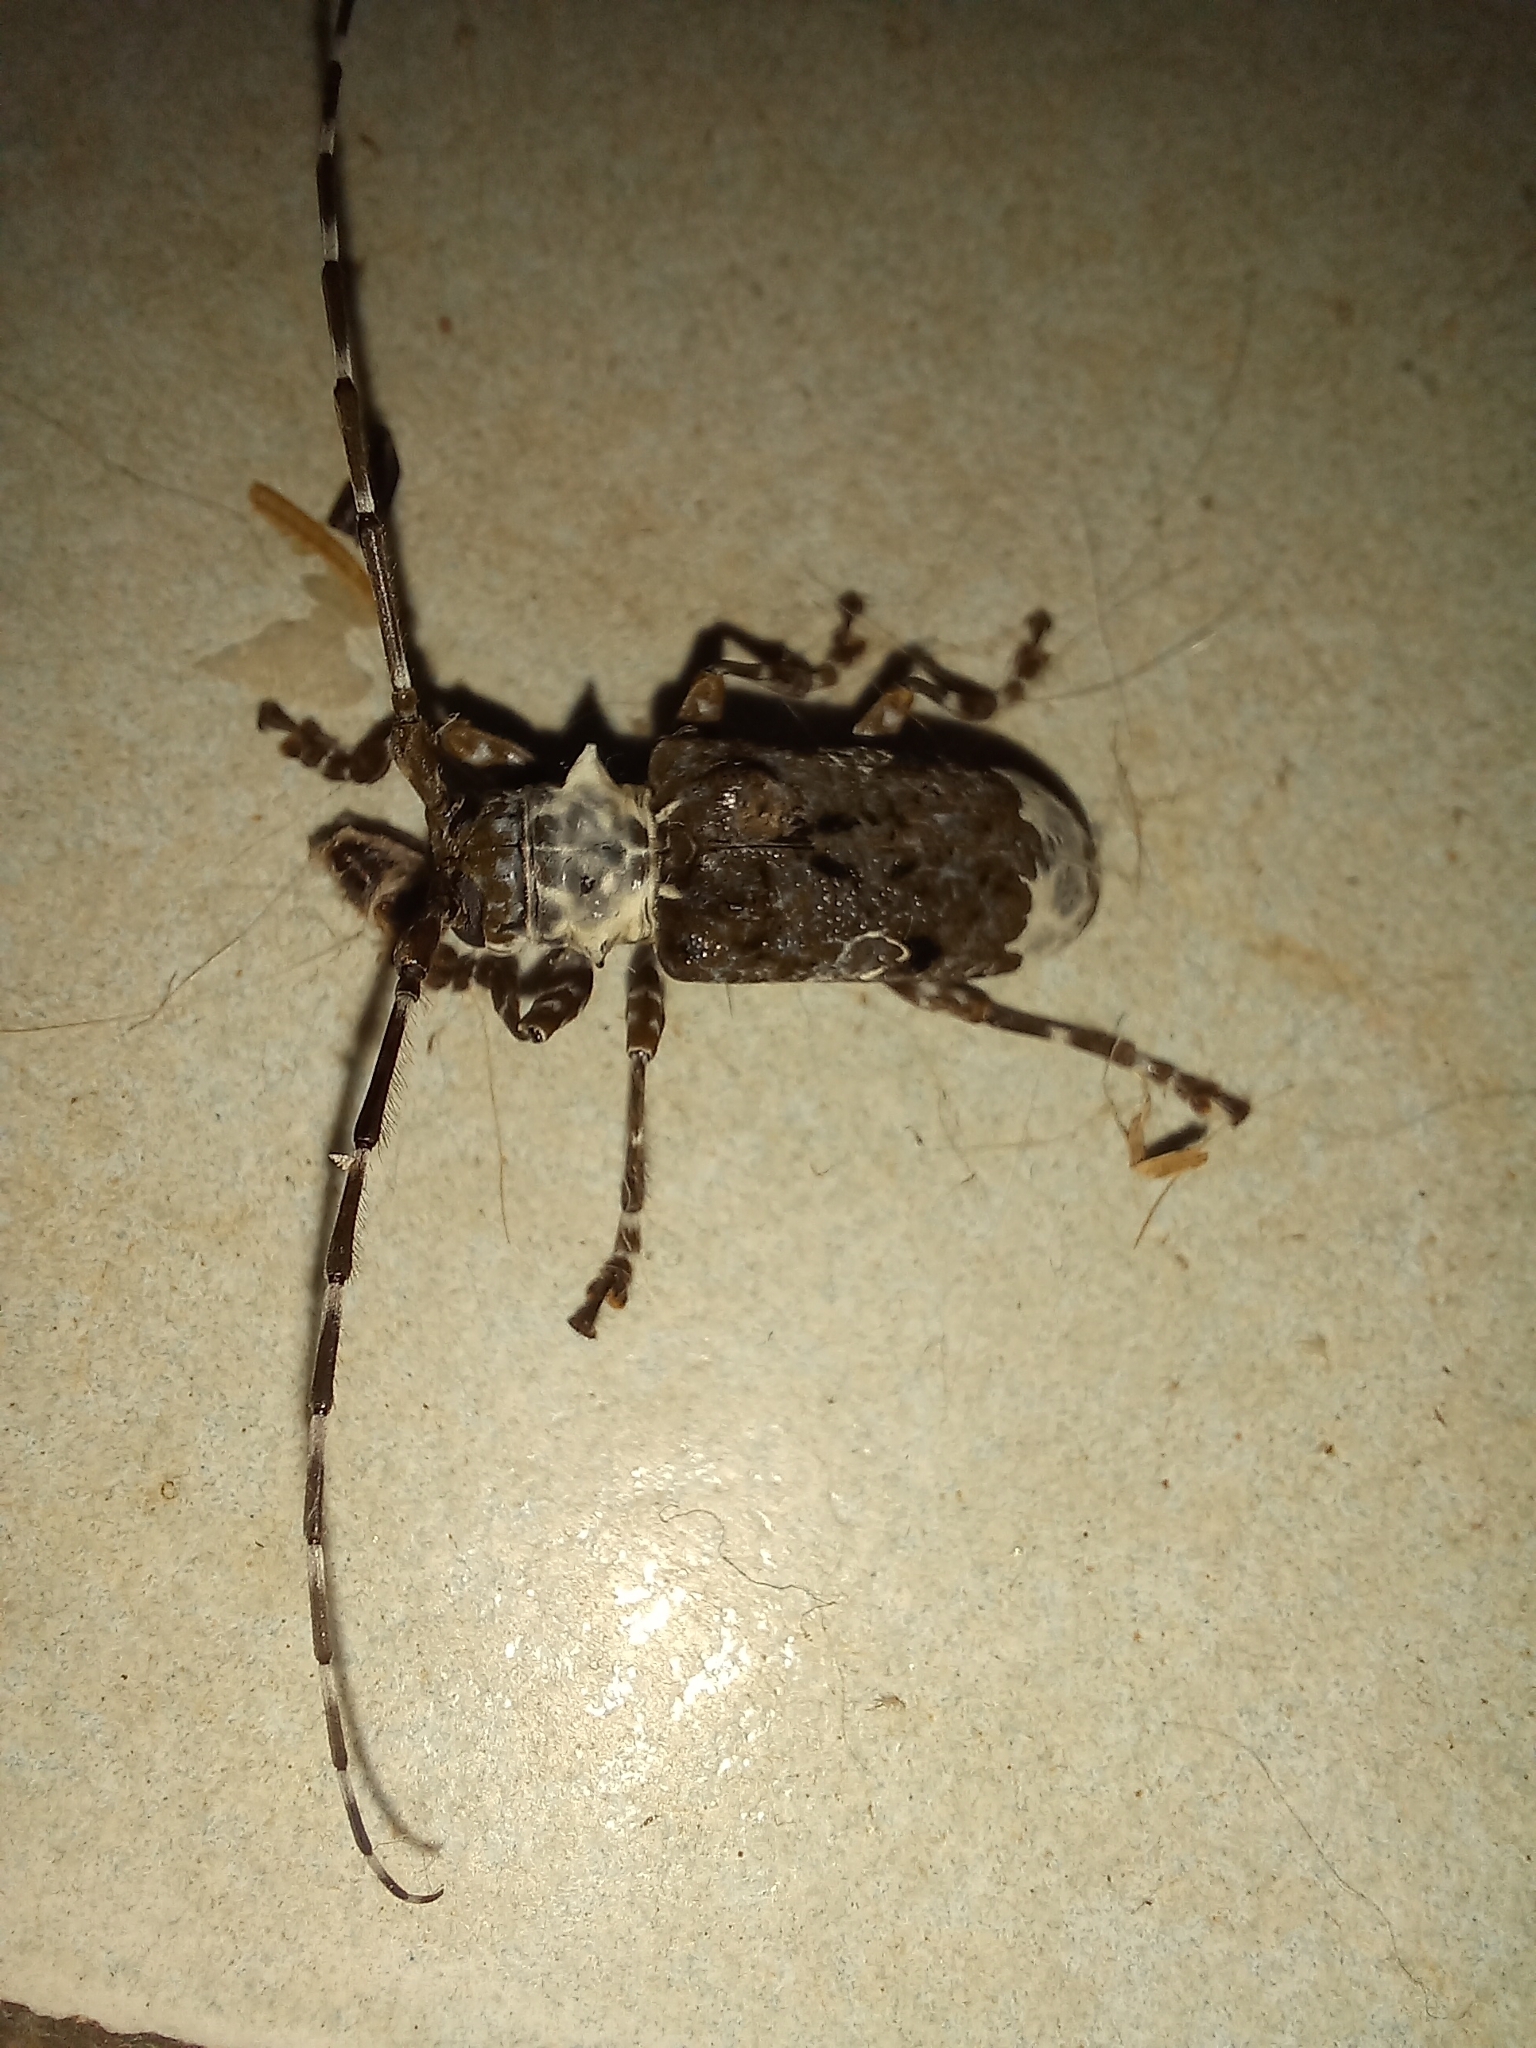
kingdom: Animalia
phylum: Arthropoda
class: Insecta
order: Coleoptera
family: Cerambycidae
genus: Lasiopezus
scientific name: Lasiopezus longimanus
